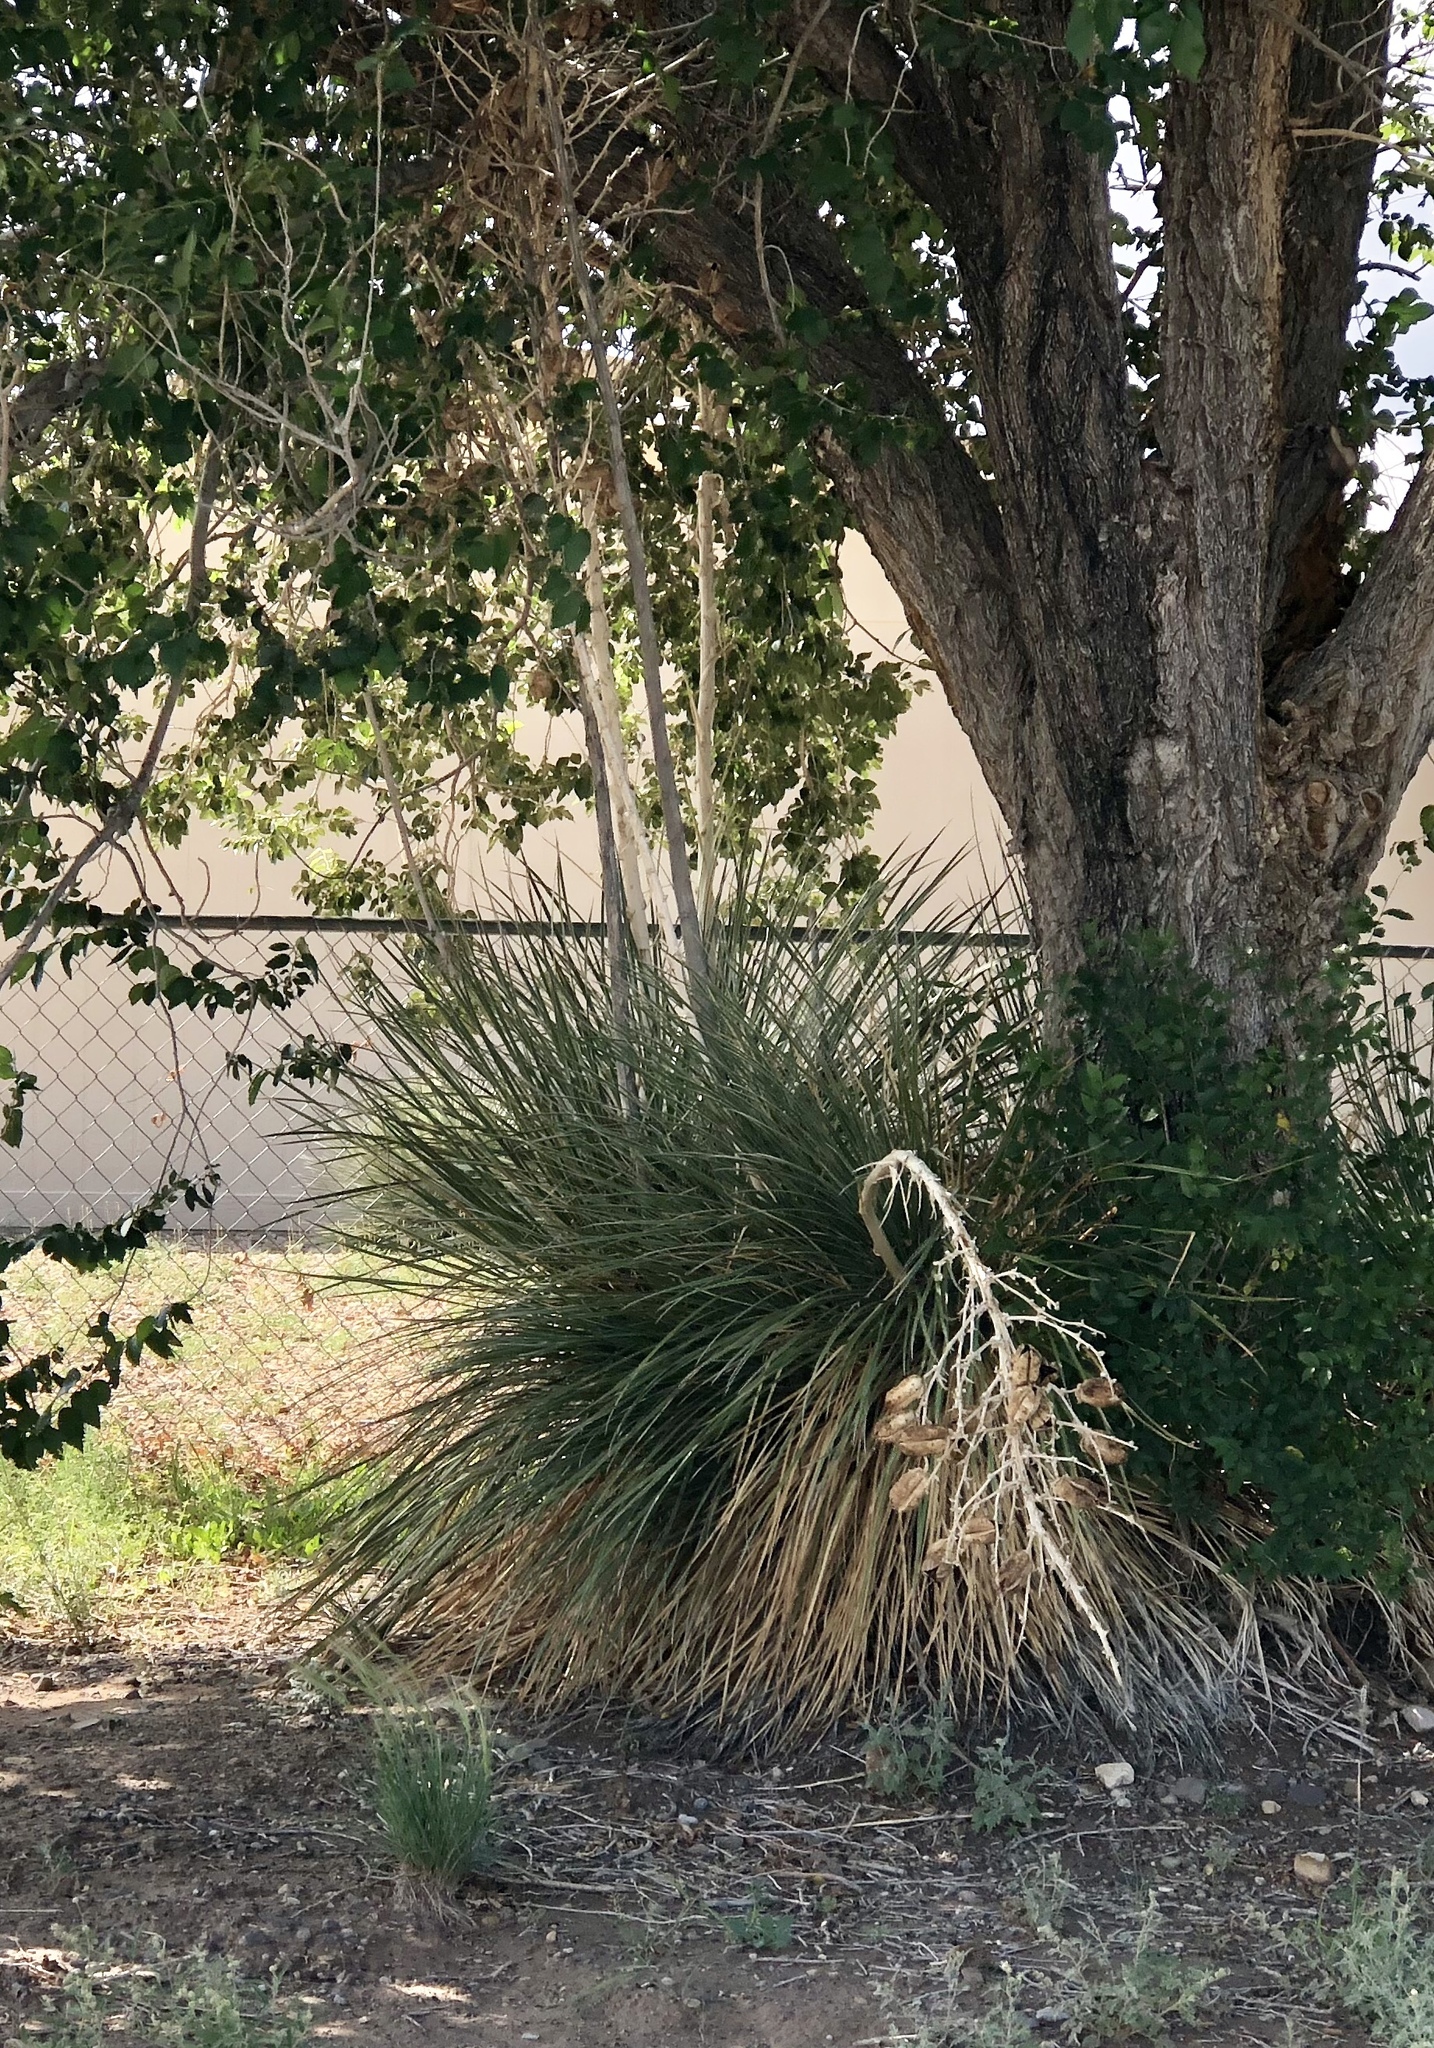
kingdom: Plantae
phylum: Tracheophyta
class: Liliopsida
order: Asparagales
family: Asparagaceae
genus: Yucca
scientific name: Yucca elata
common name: Palmella
